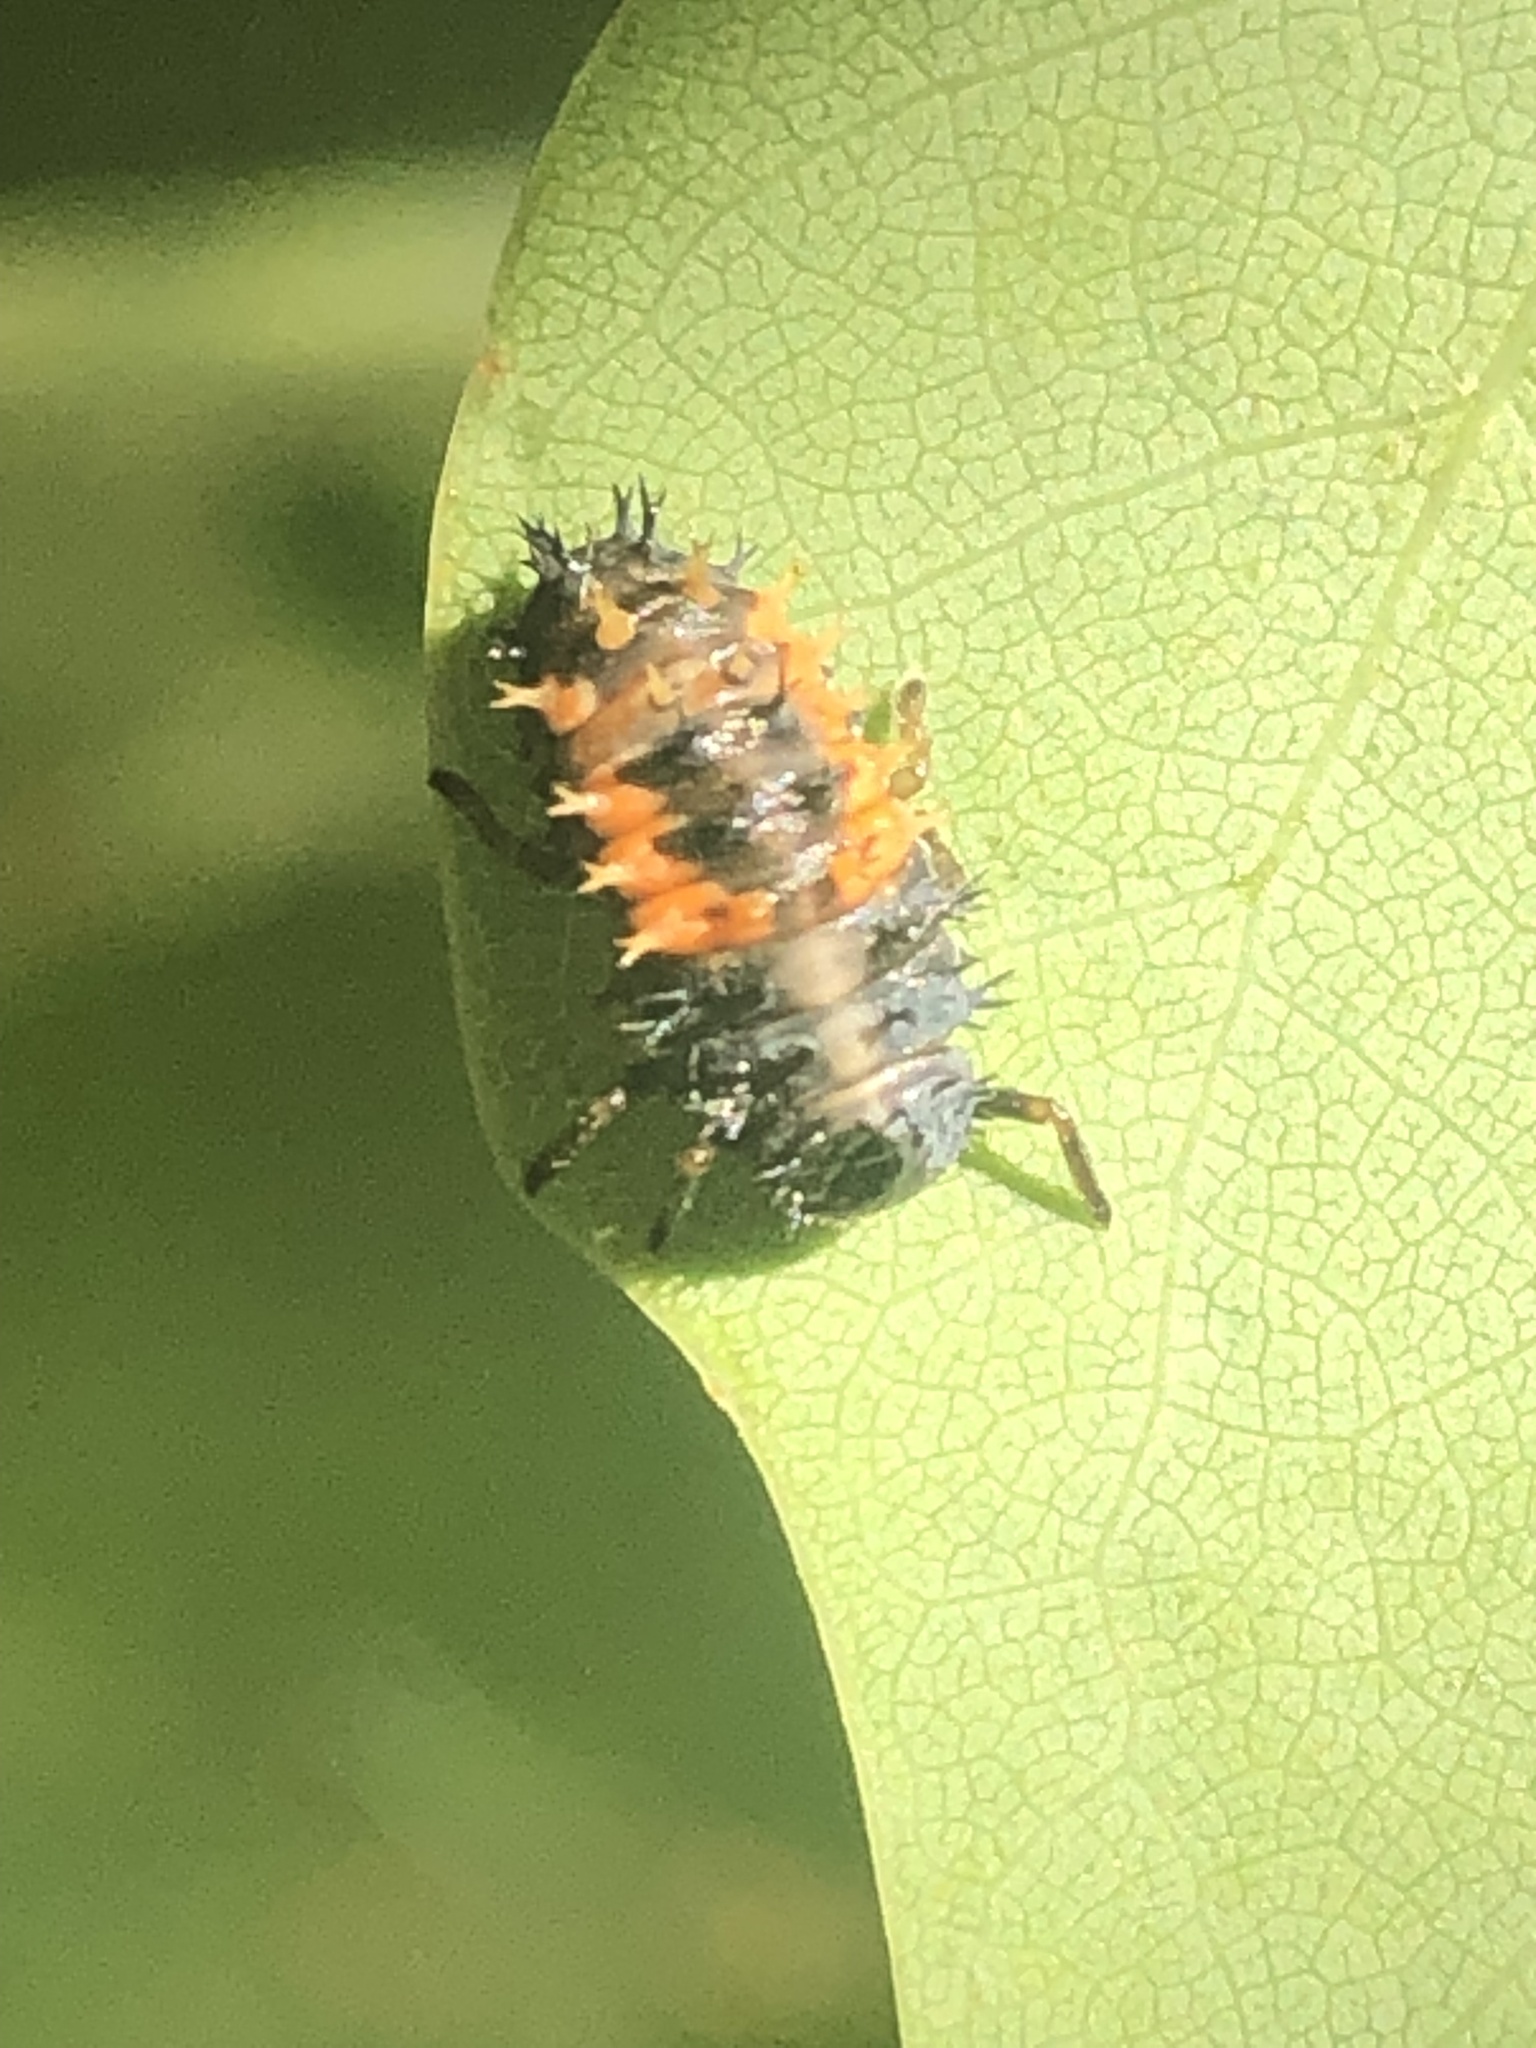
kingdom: Animalia
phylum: Arthropoda
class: Insecta
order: Coleoptera
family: Coccinellidae
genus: Harmonia
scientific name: Harmonia axyridis
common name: Harlequin ladybird
